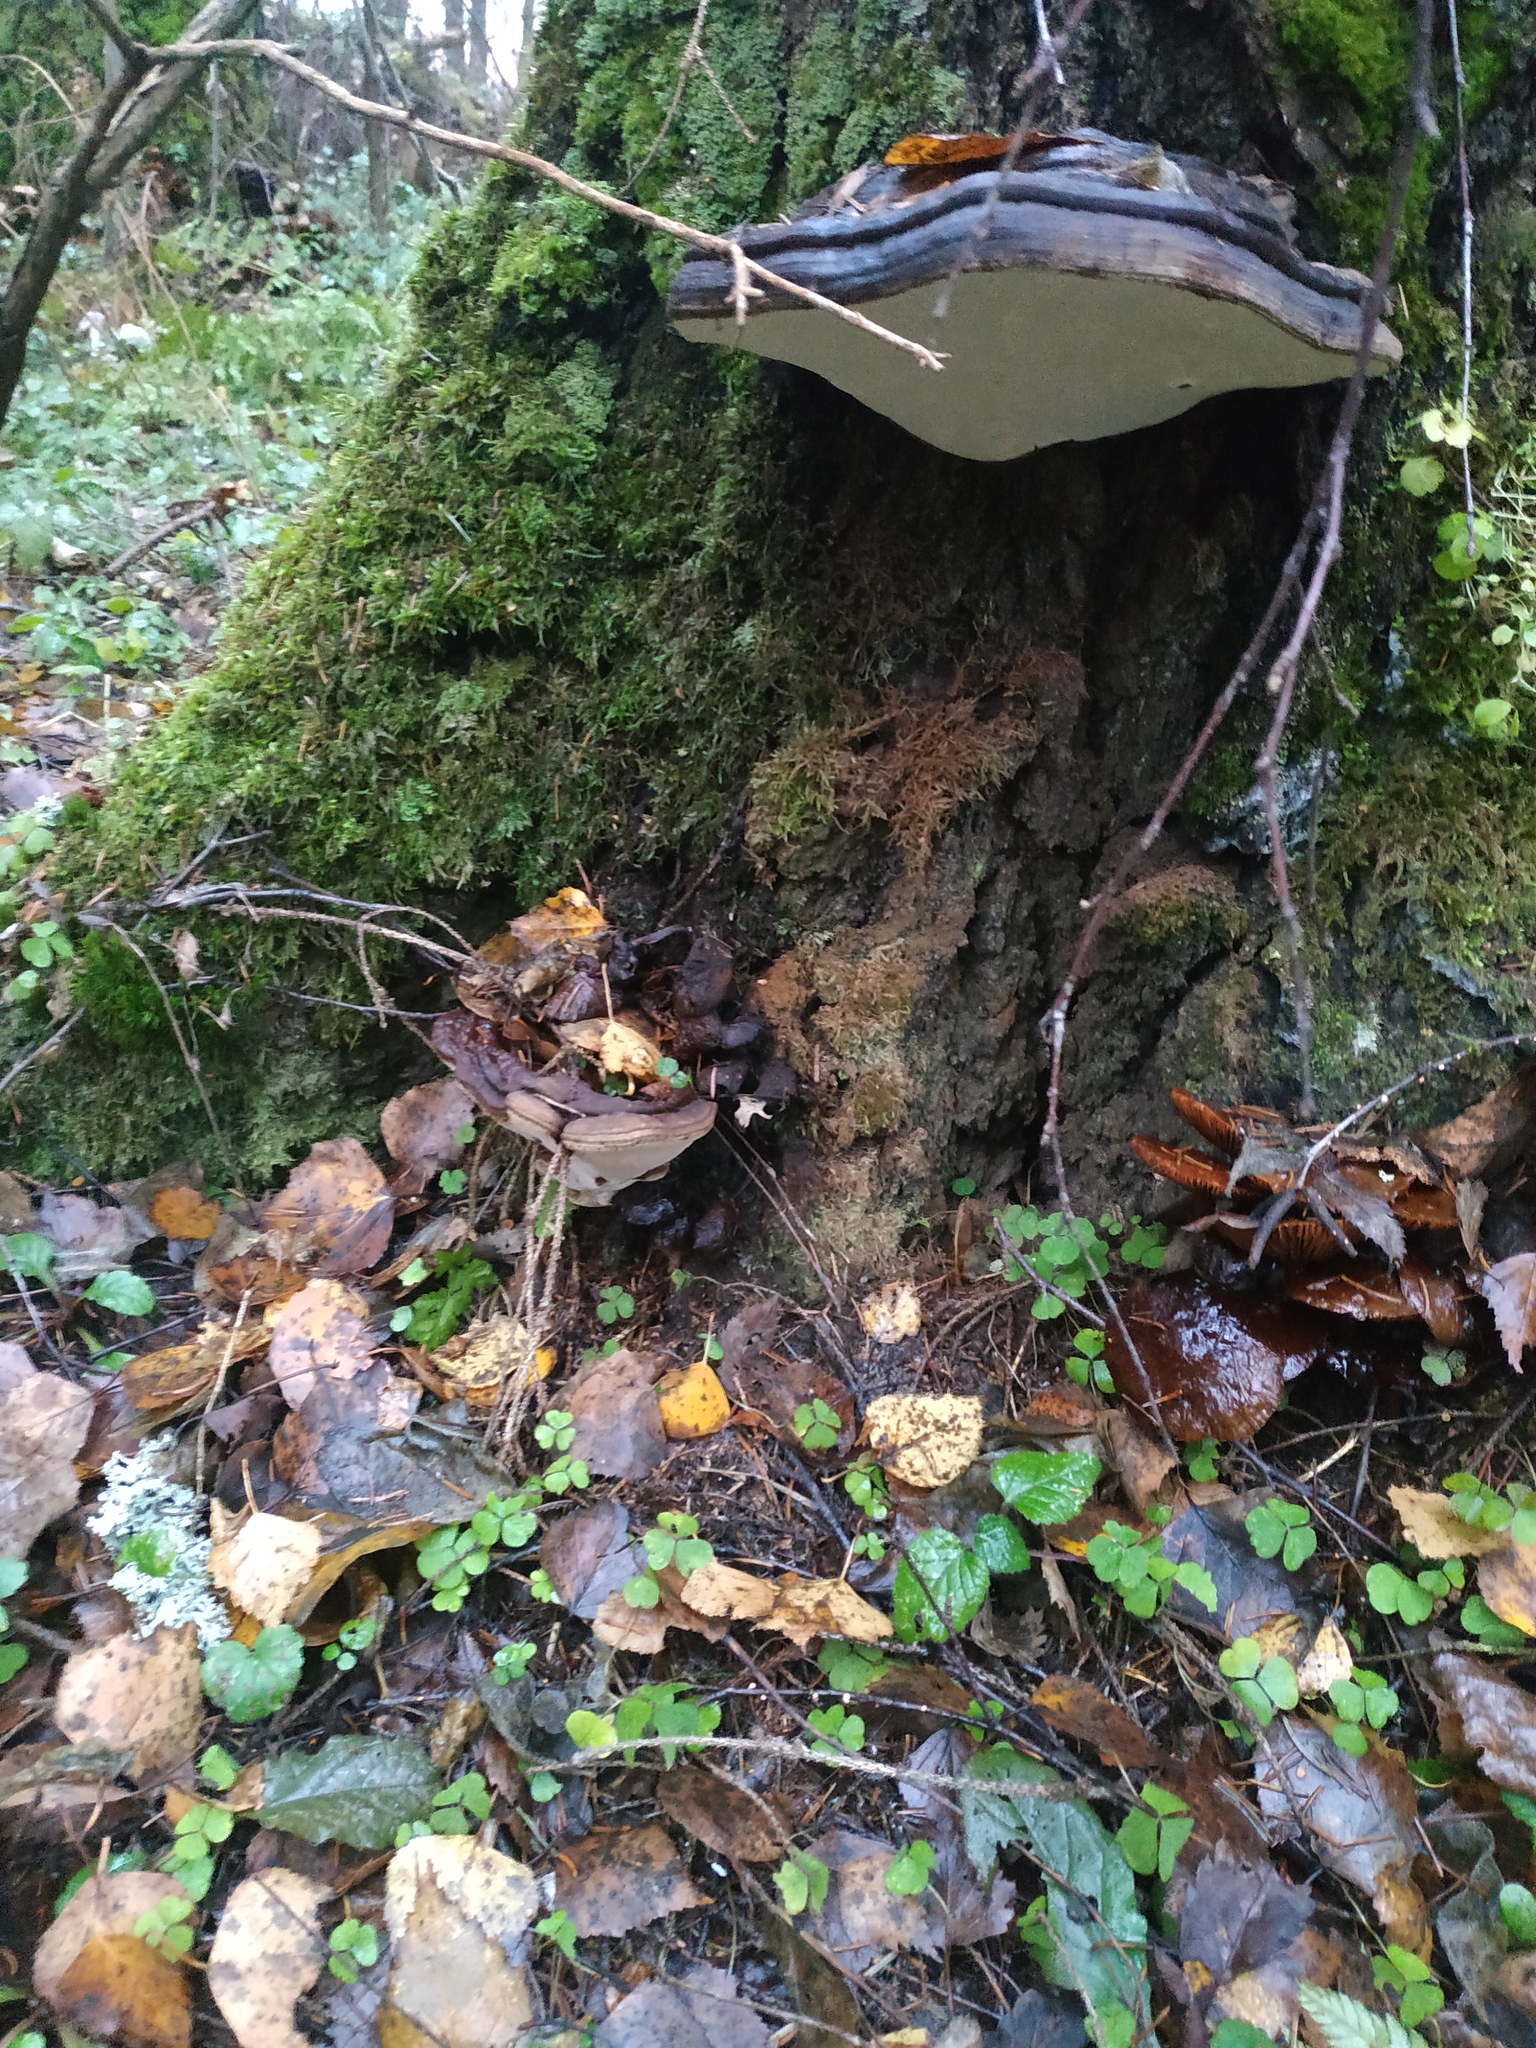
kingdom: Fungi
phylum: Basidiomycota
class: Agaricomycetes
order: Polyporales
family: Polyporaceae
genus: Ganoderma
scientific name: Ganoderma applanatum
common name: Artist's bracket
